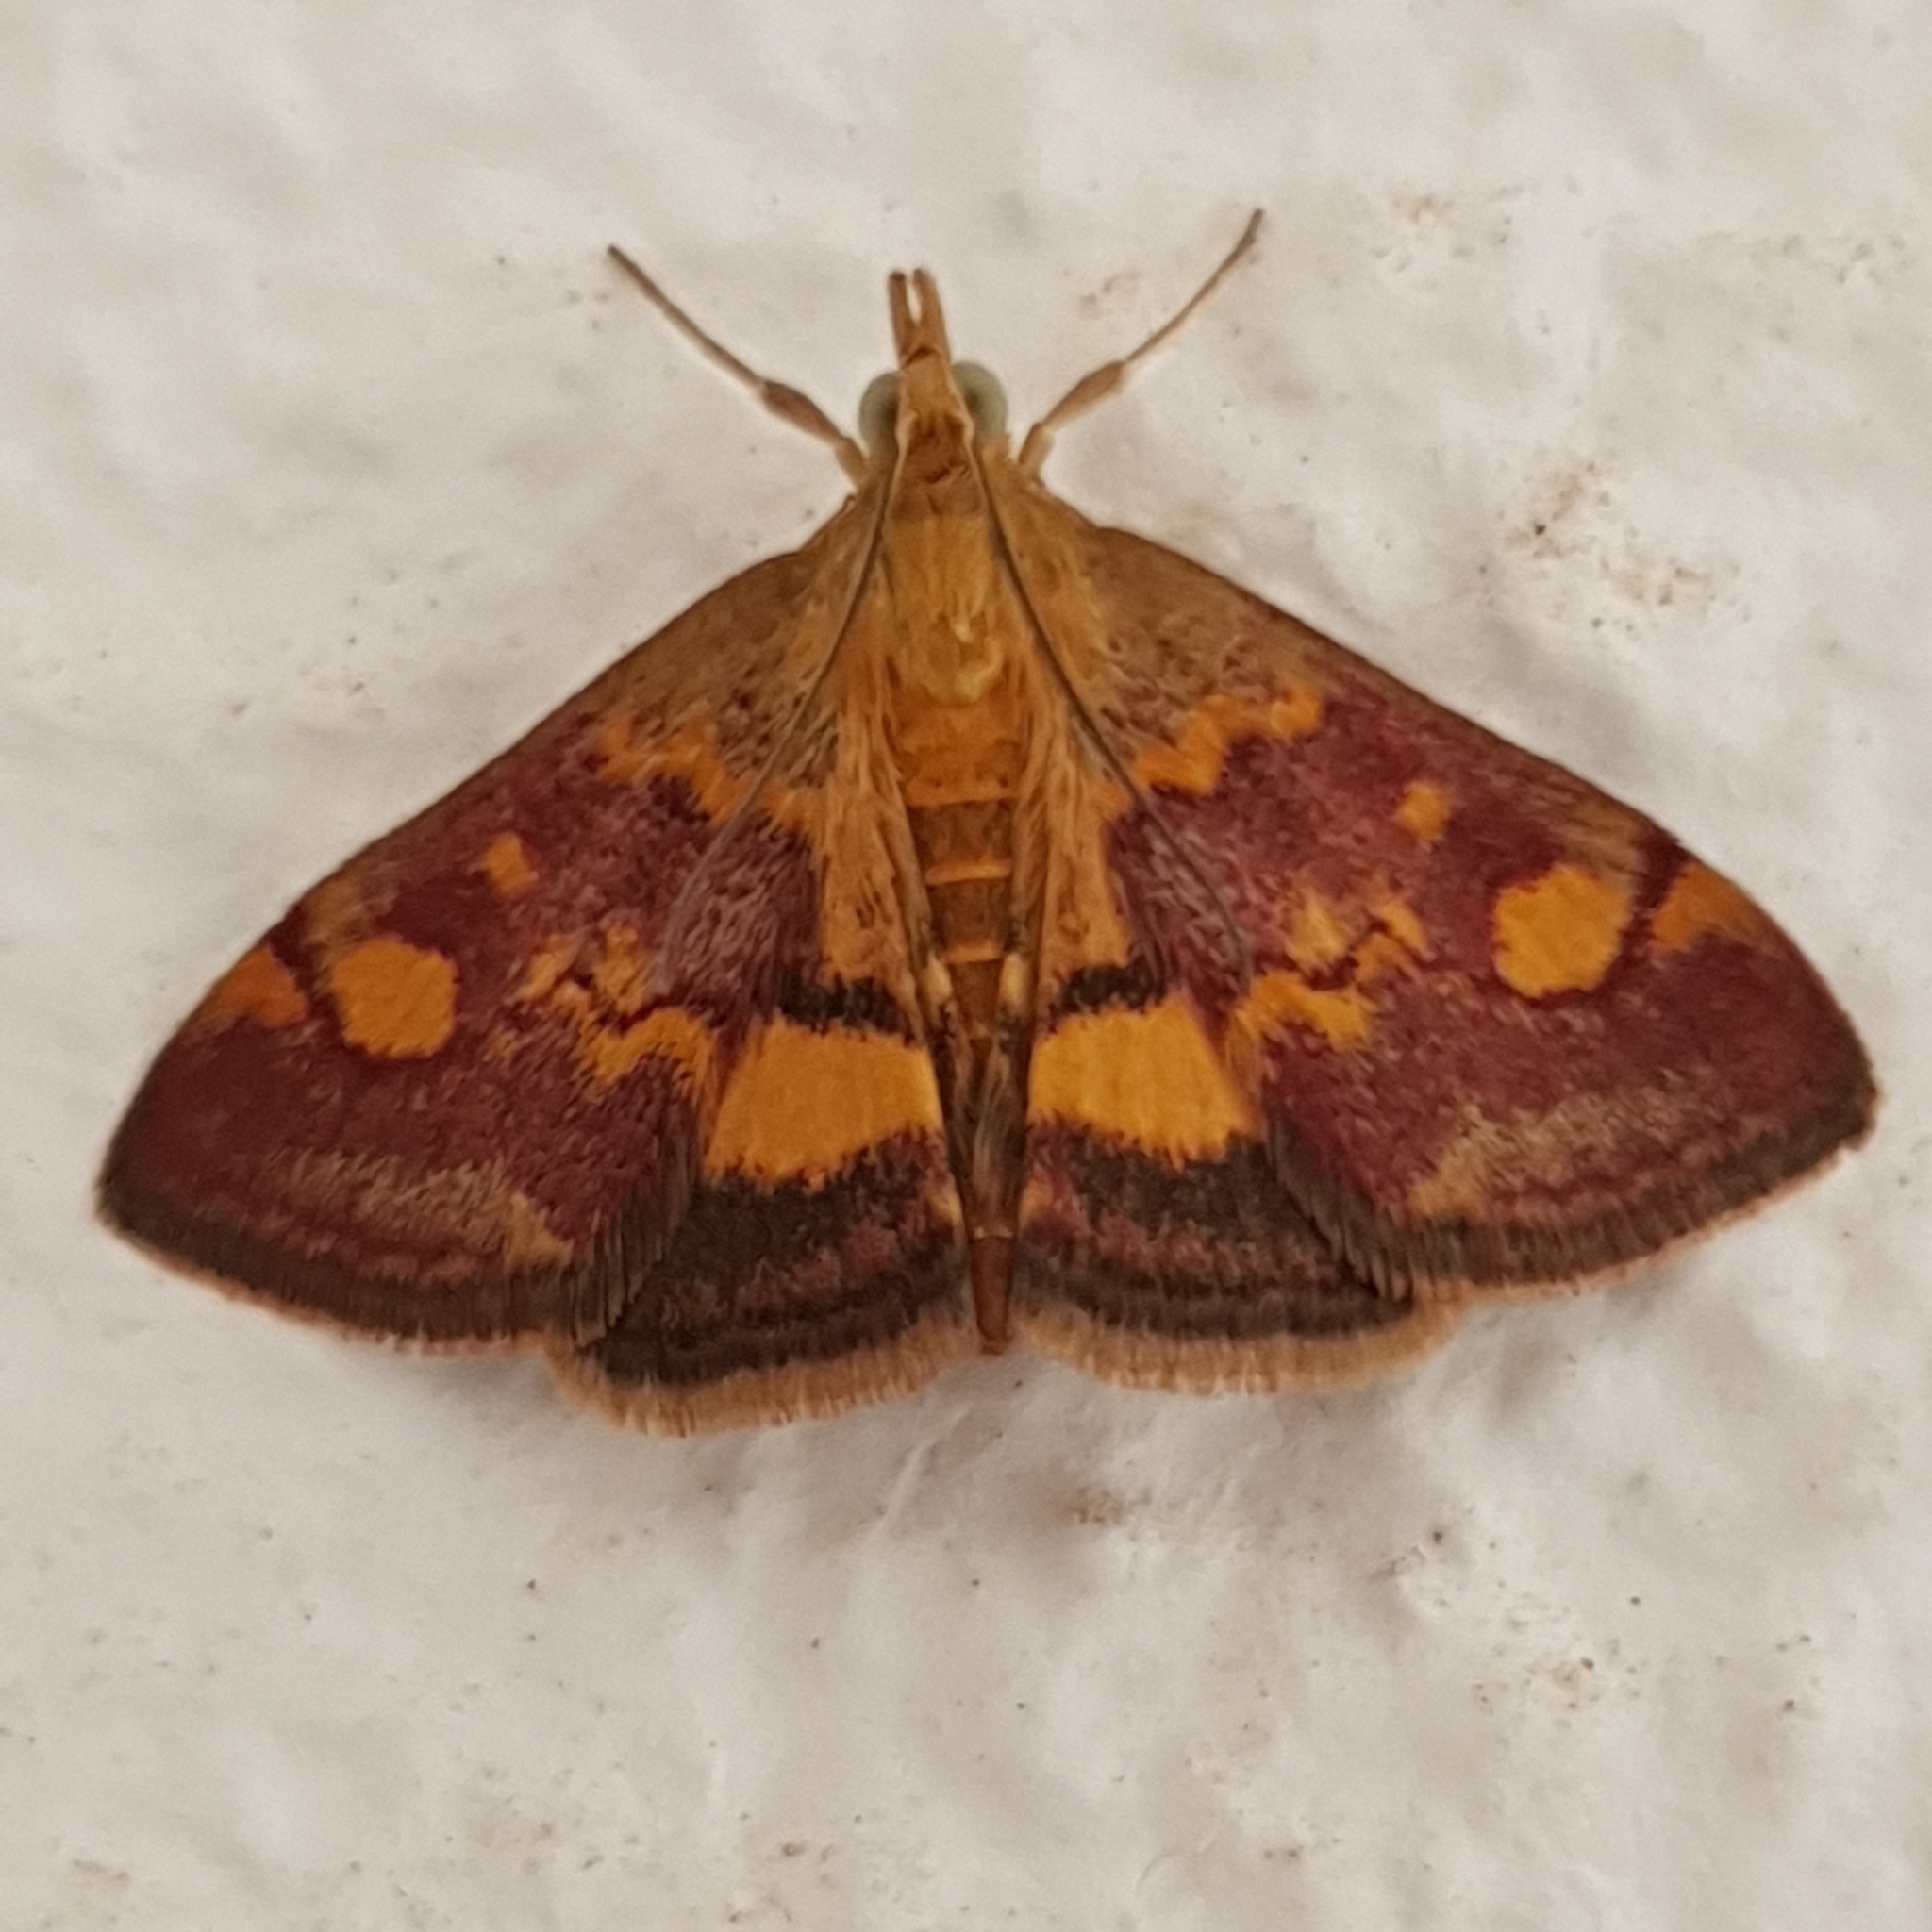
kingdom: Animalia
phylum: Arthropoda
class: Insecta
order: Lepidoptera
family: Crambidae
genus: Pyrausta
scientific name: Pyrausta aurata
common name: Small purple & gold
